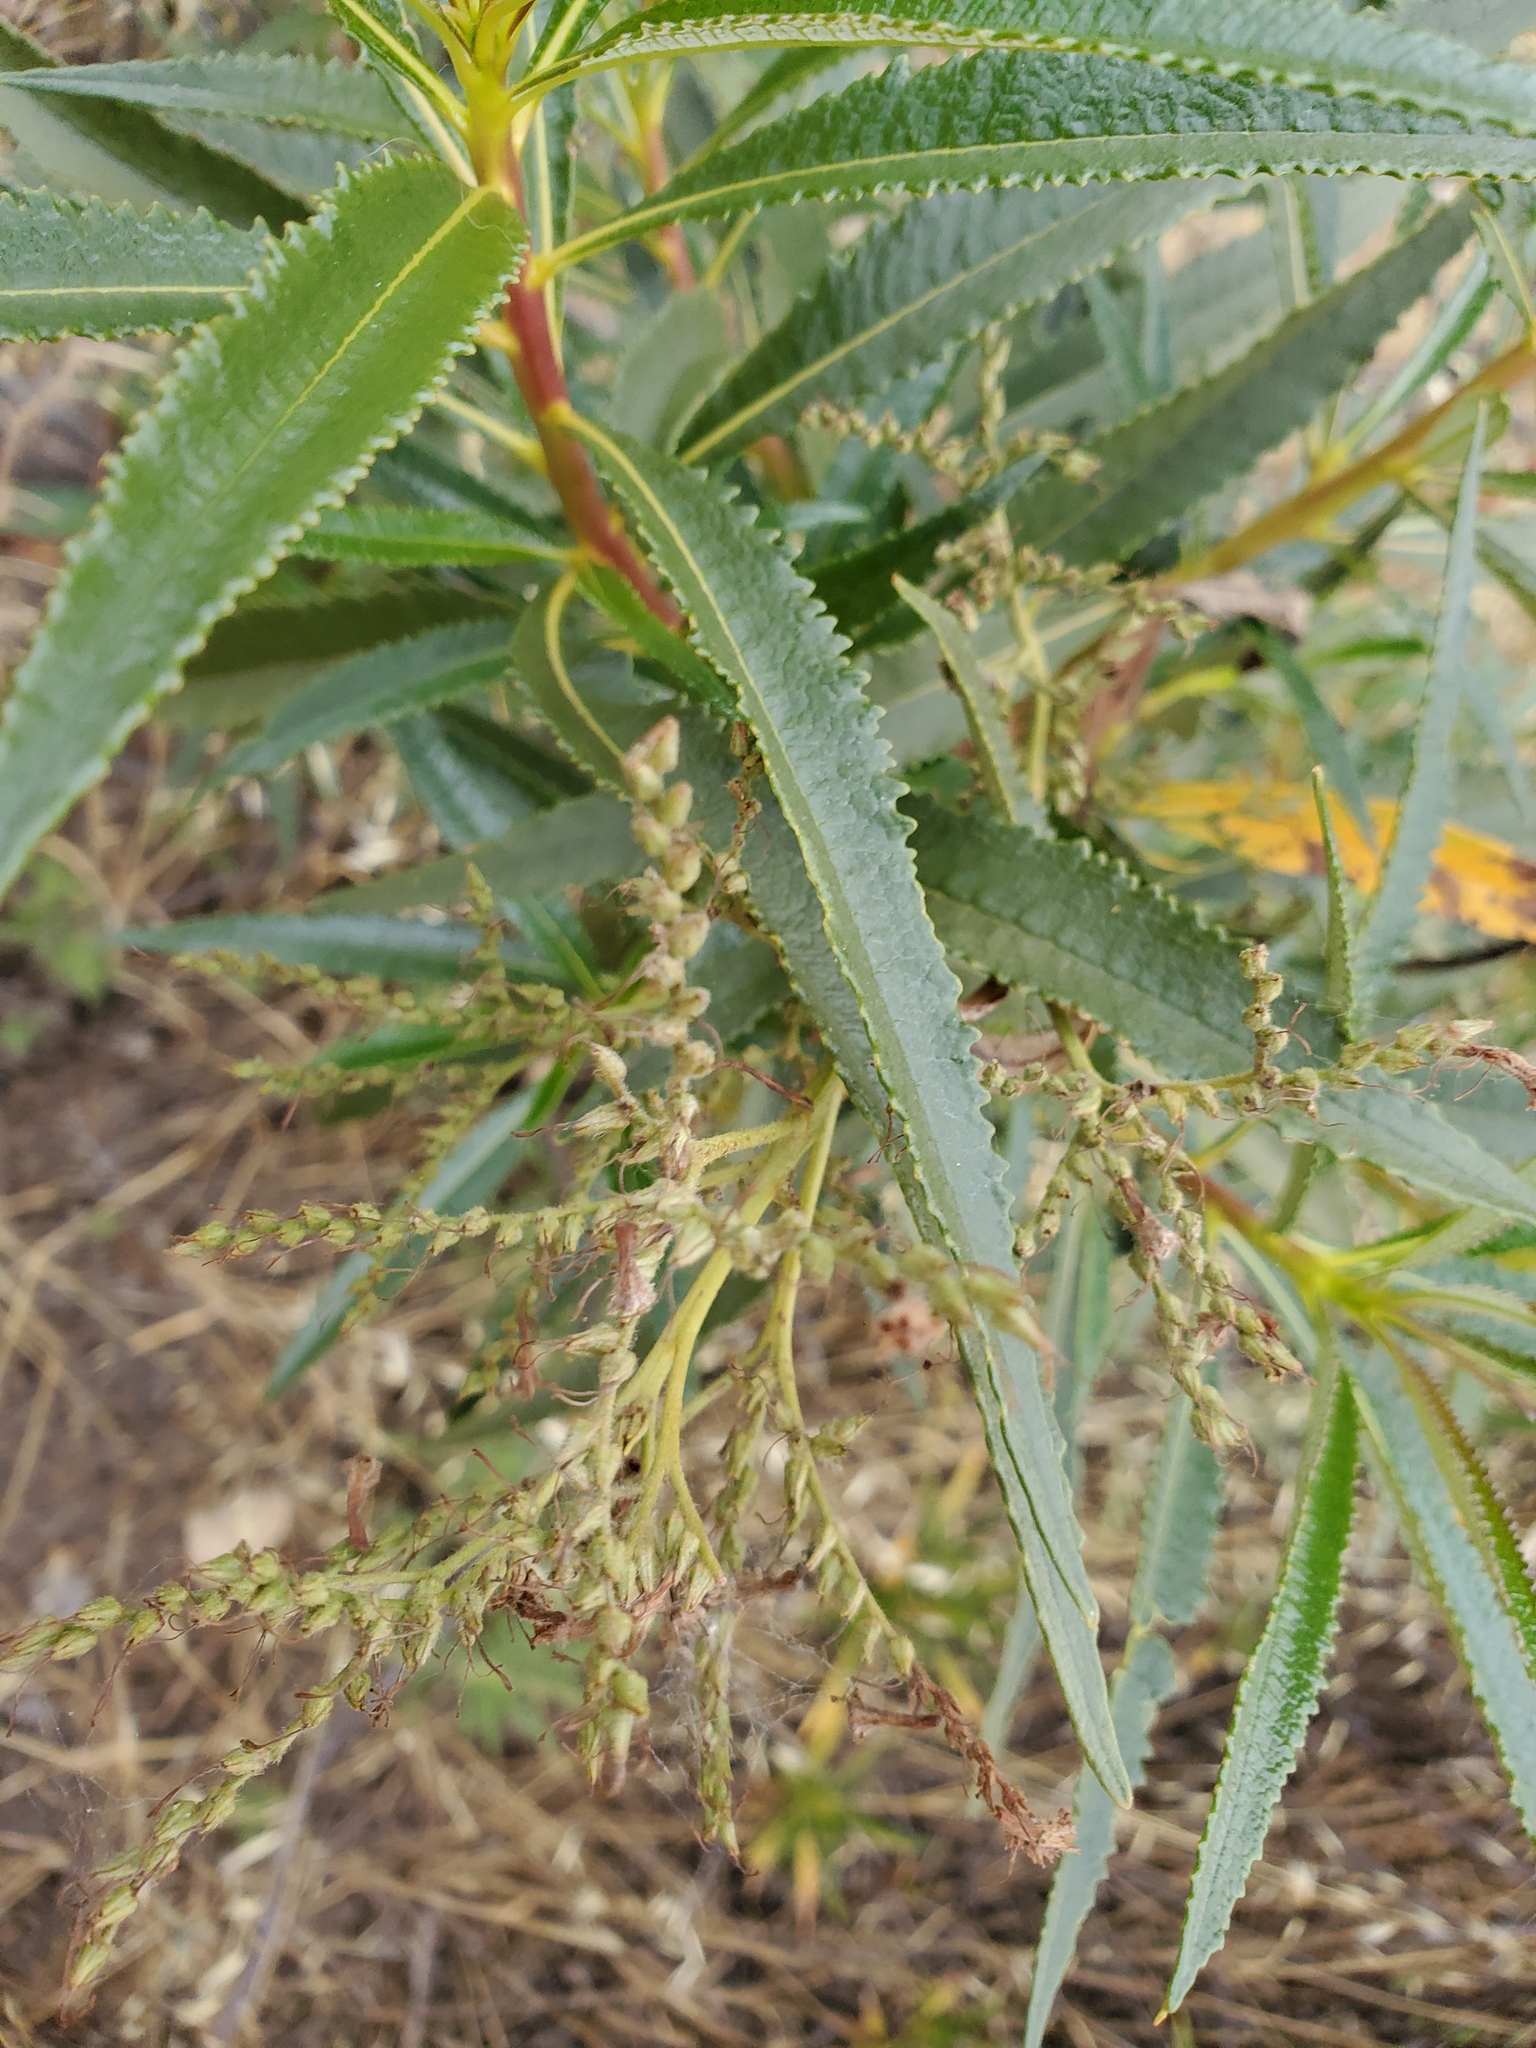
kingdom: Plantae
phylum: Tracheophyta
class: Magnoliopsida
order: Boraginales
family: Namaceae
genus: Eriodictyon
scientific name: Eriodictyon californicum
